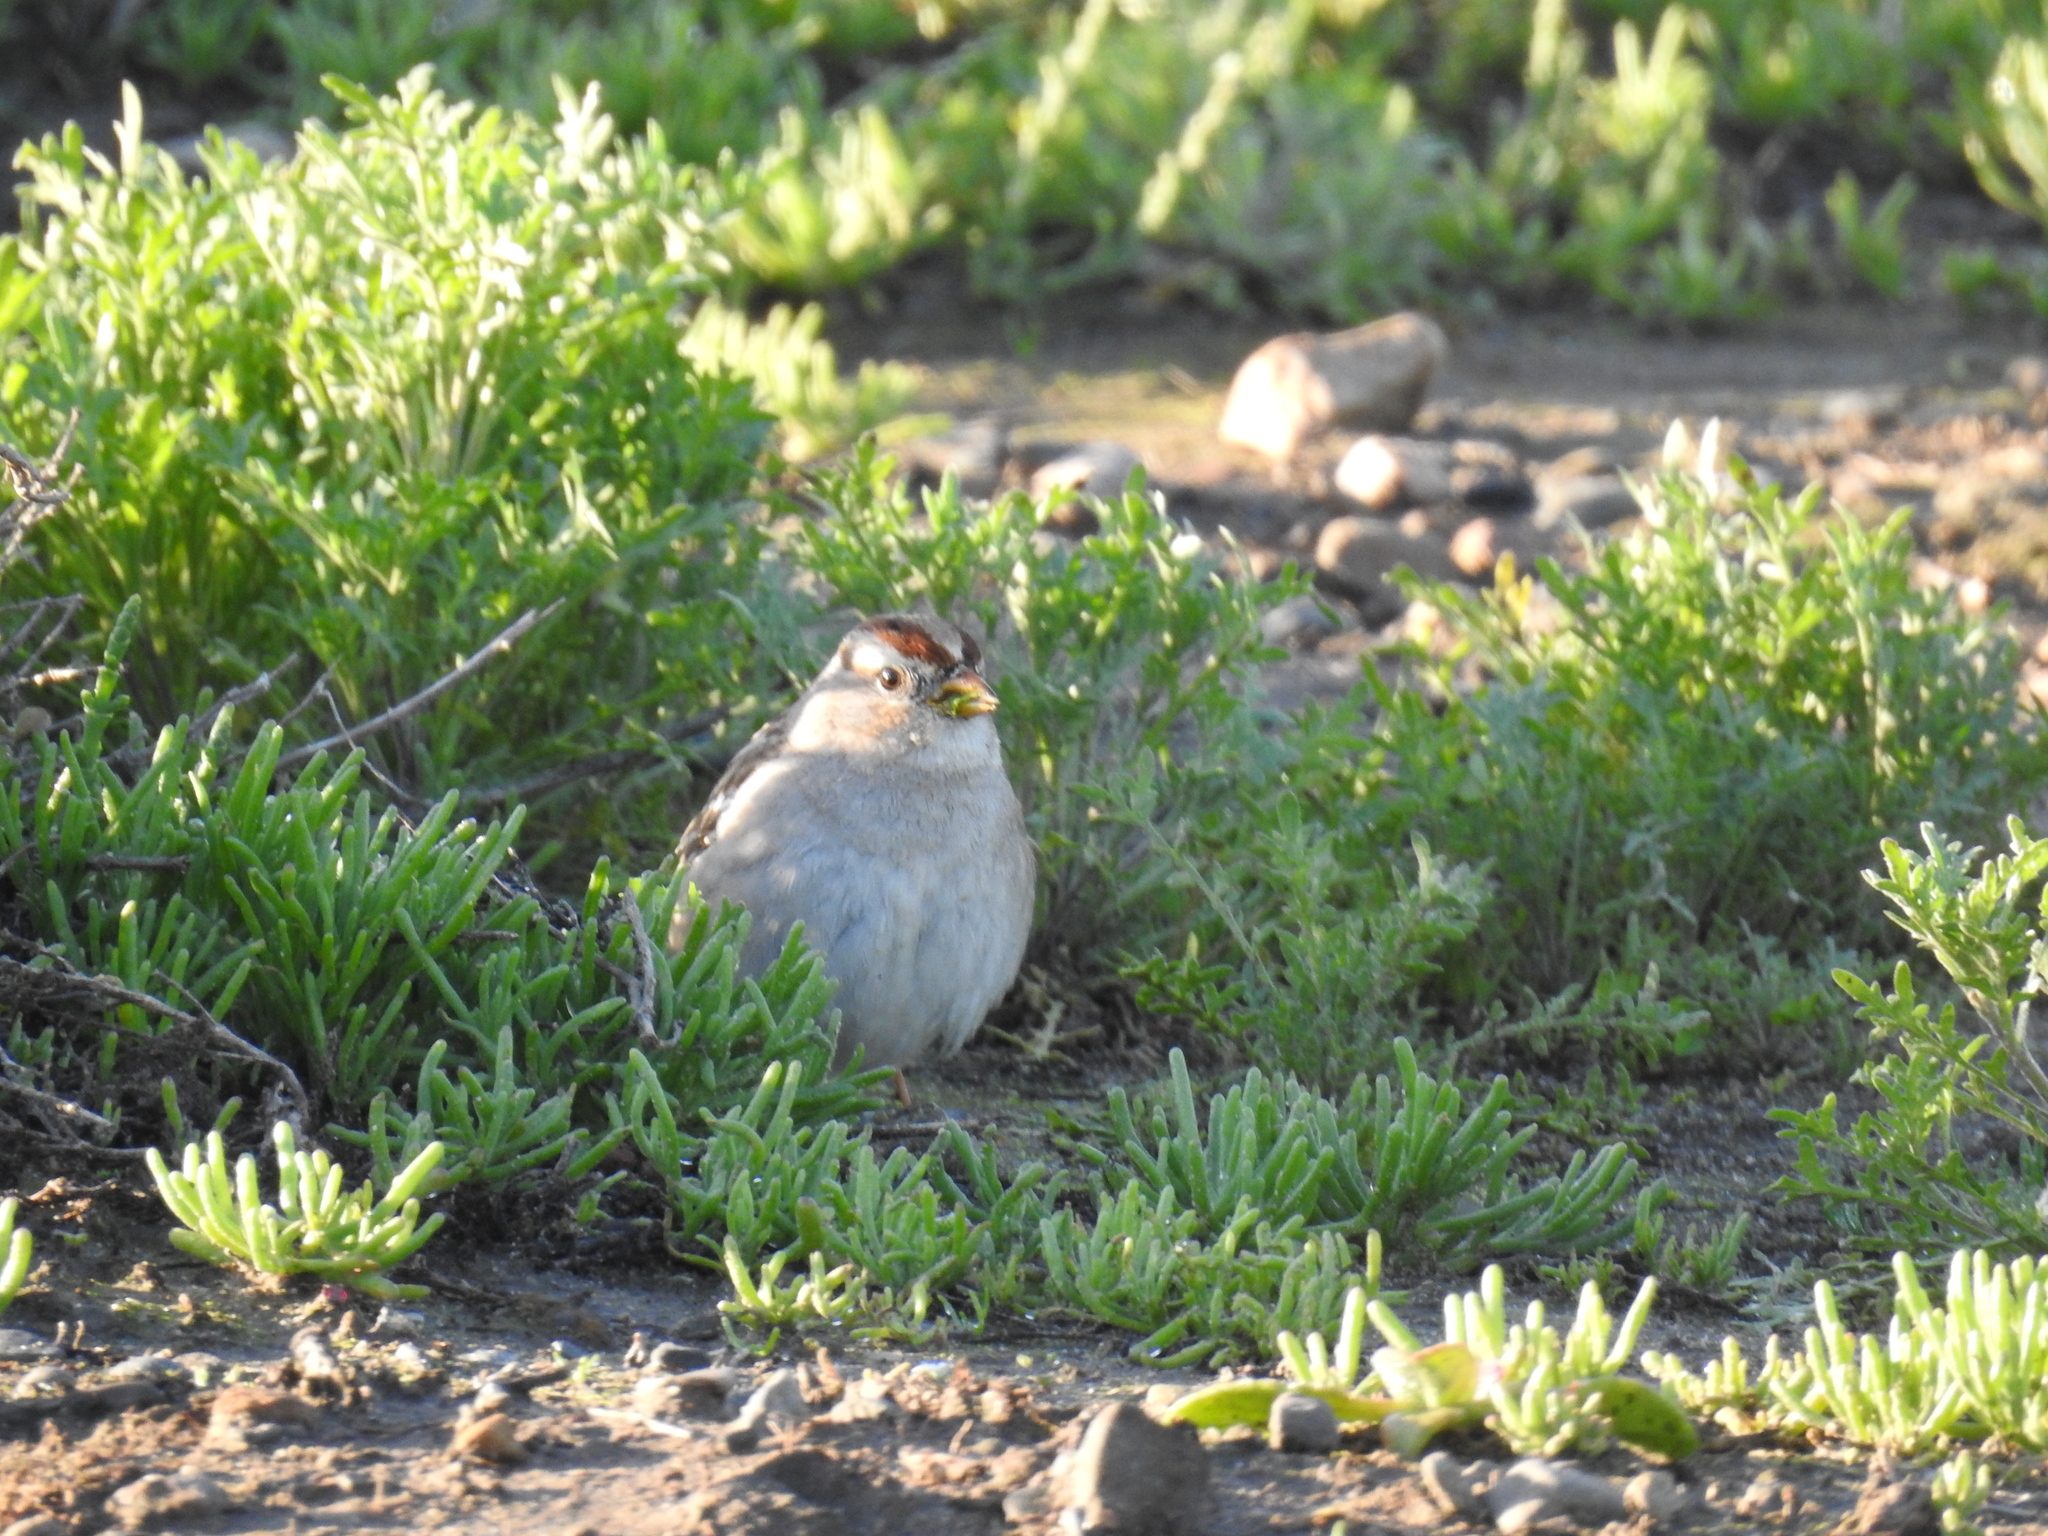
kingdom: Animalia
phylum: Chordata
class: Aves
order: Passeriformes
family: Passerellidae
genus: Zonotrichia
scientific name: Zonotrichia leucophrys
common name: White-crowned sparrow
